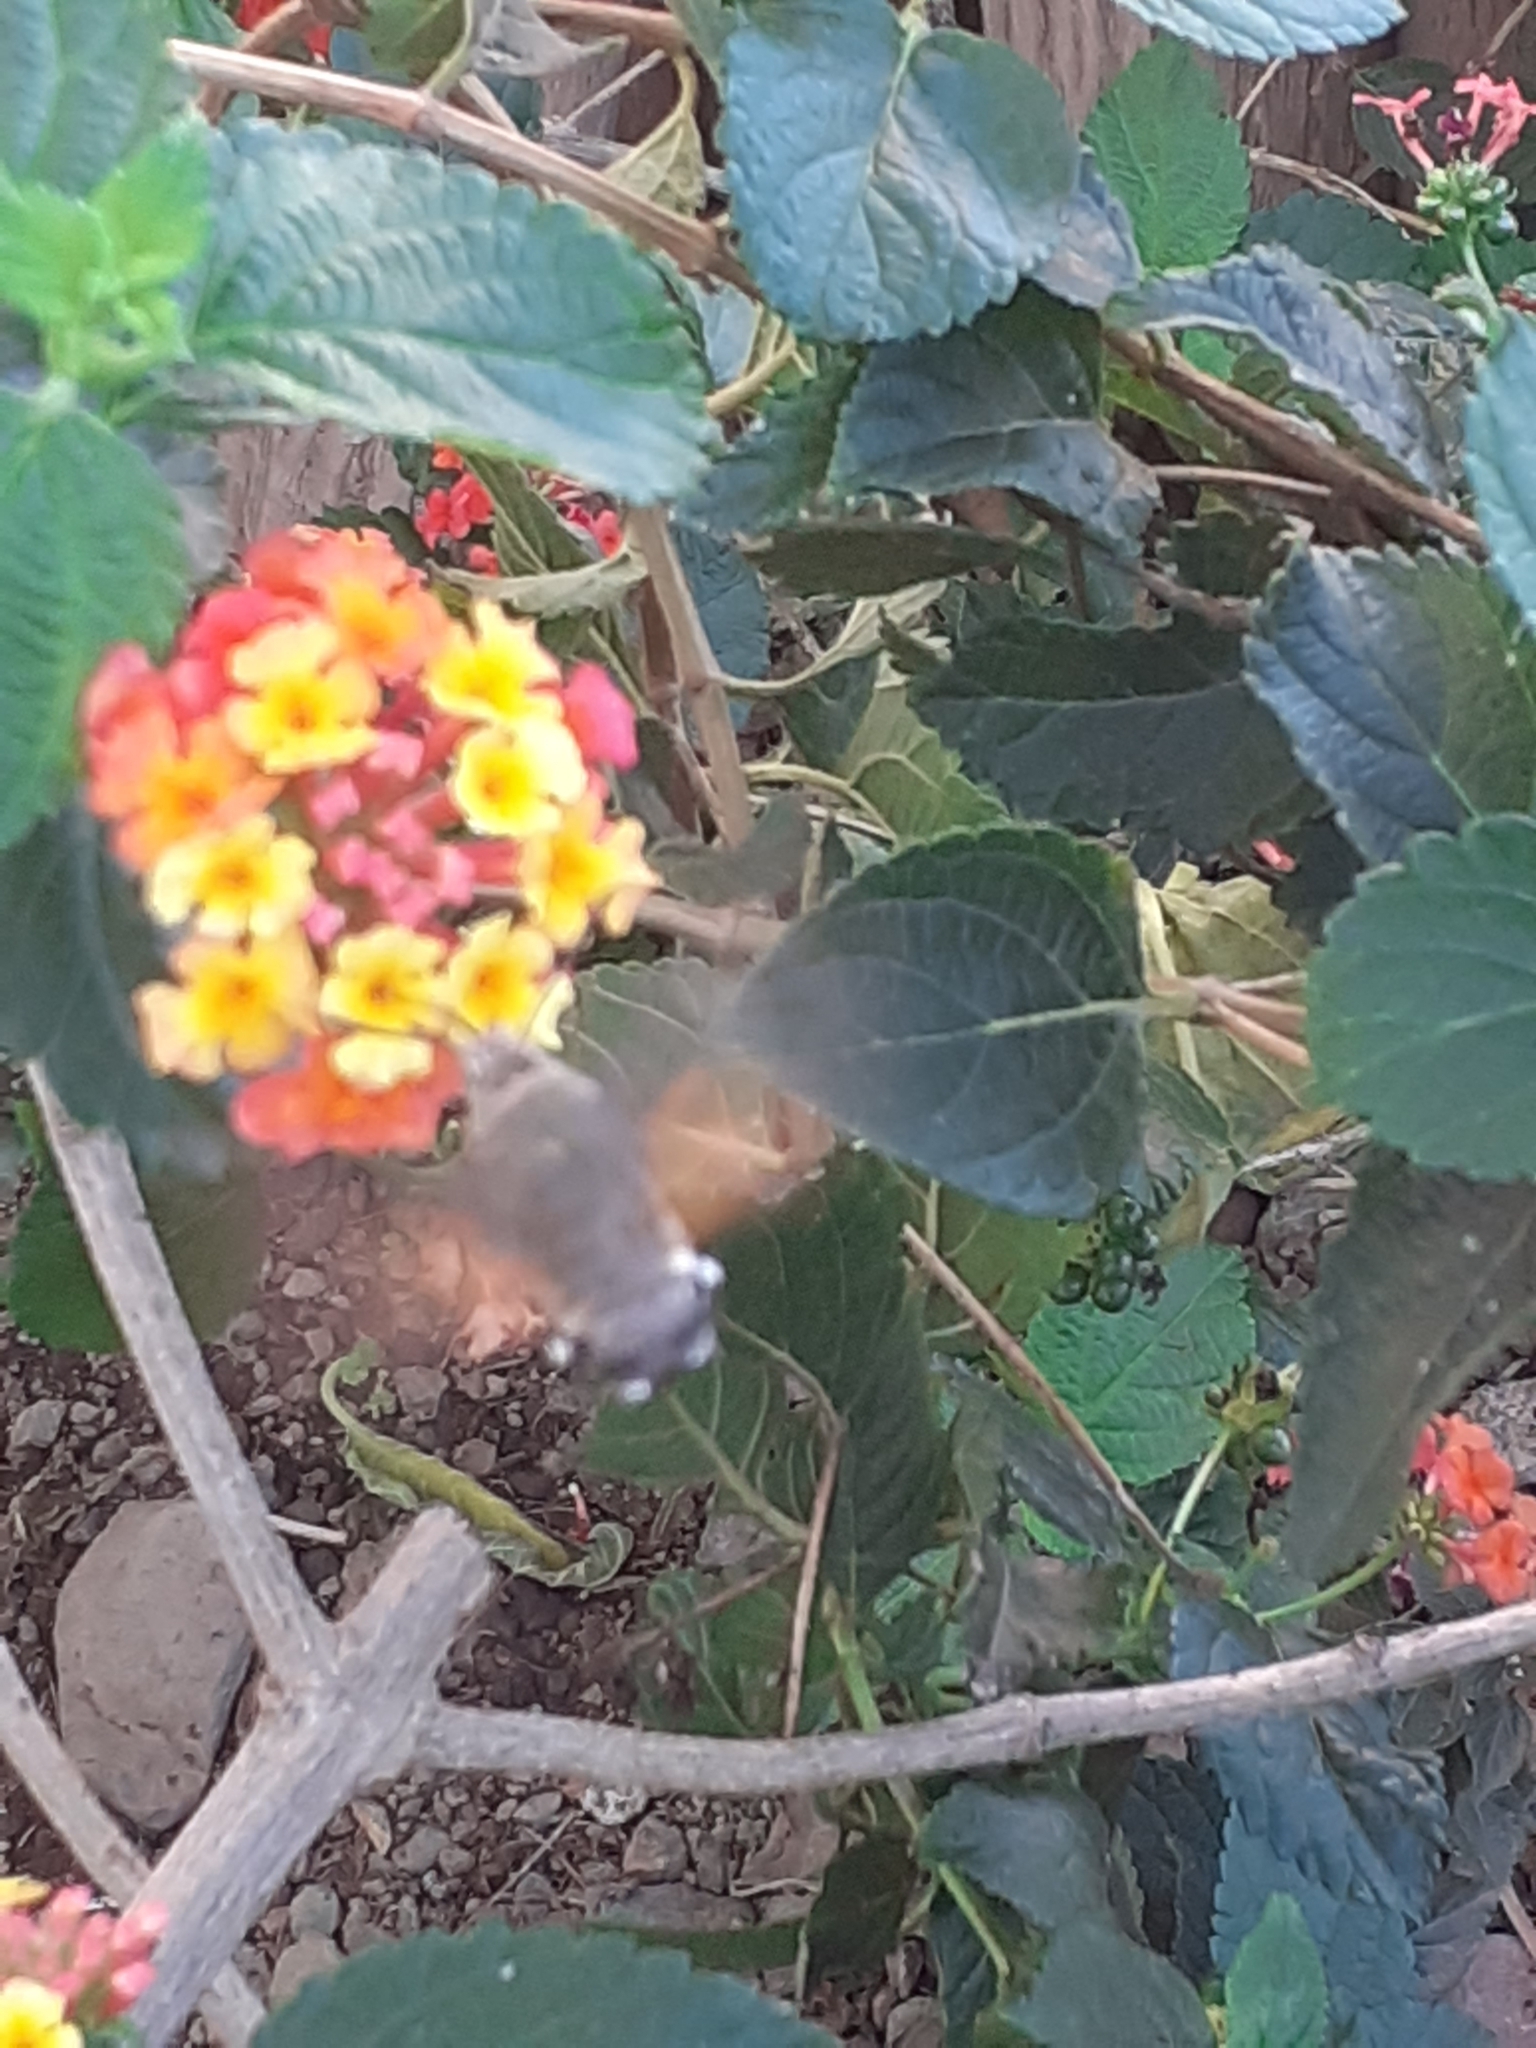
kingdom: Animalia
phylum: Arthropoda
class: Insecta
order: Lepidoptera
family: Sphingidae
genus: Macroglossum
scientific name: Macroglossum stellatarum
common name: Humming-bird hawk-moth
